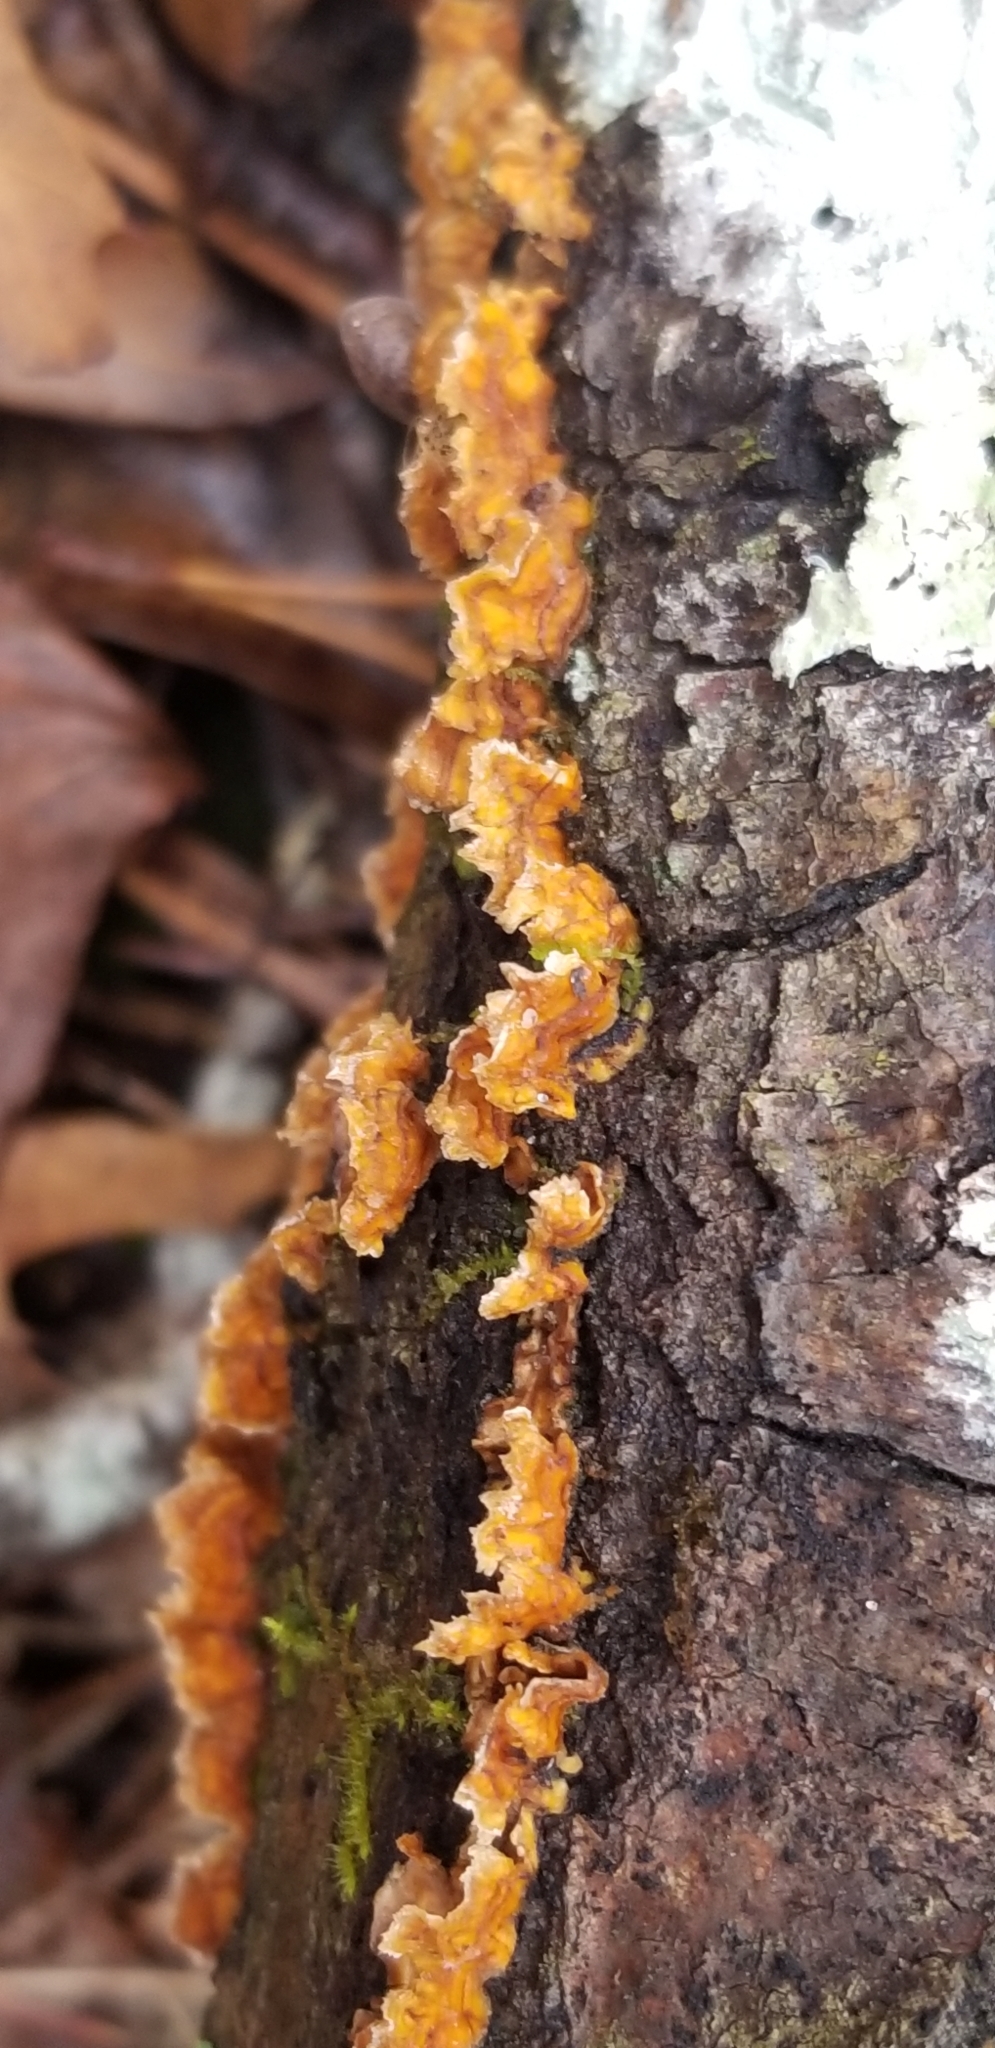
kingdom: Fungi
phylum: Basidiomycota
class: Agaricomycetes
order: Russulales
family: Stereaceae
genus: Stereum
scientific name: Stereum complicatum
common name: Crowded parchment
